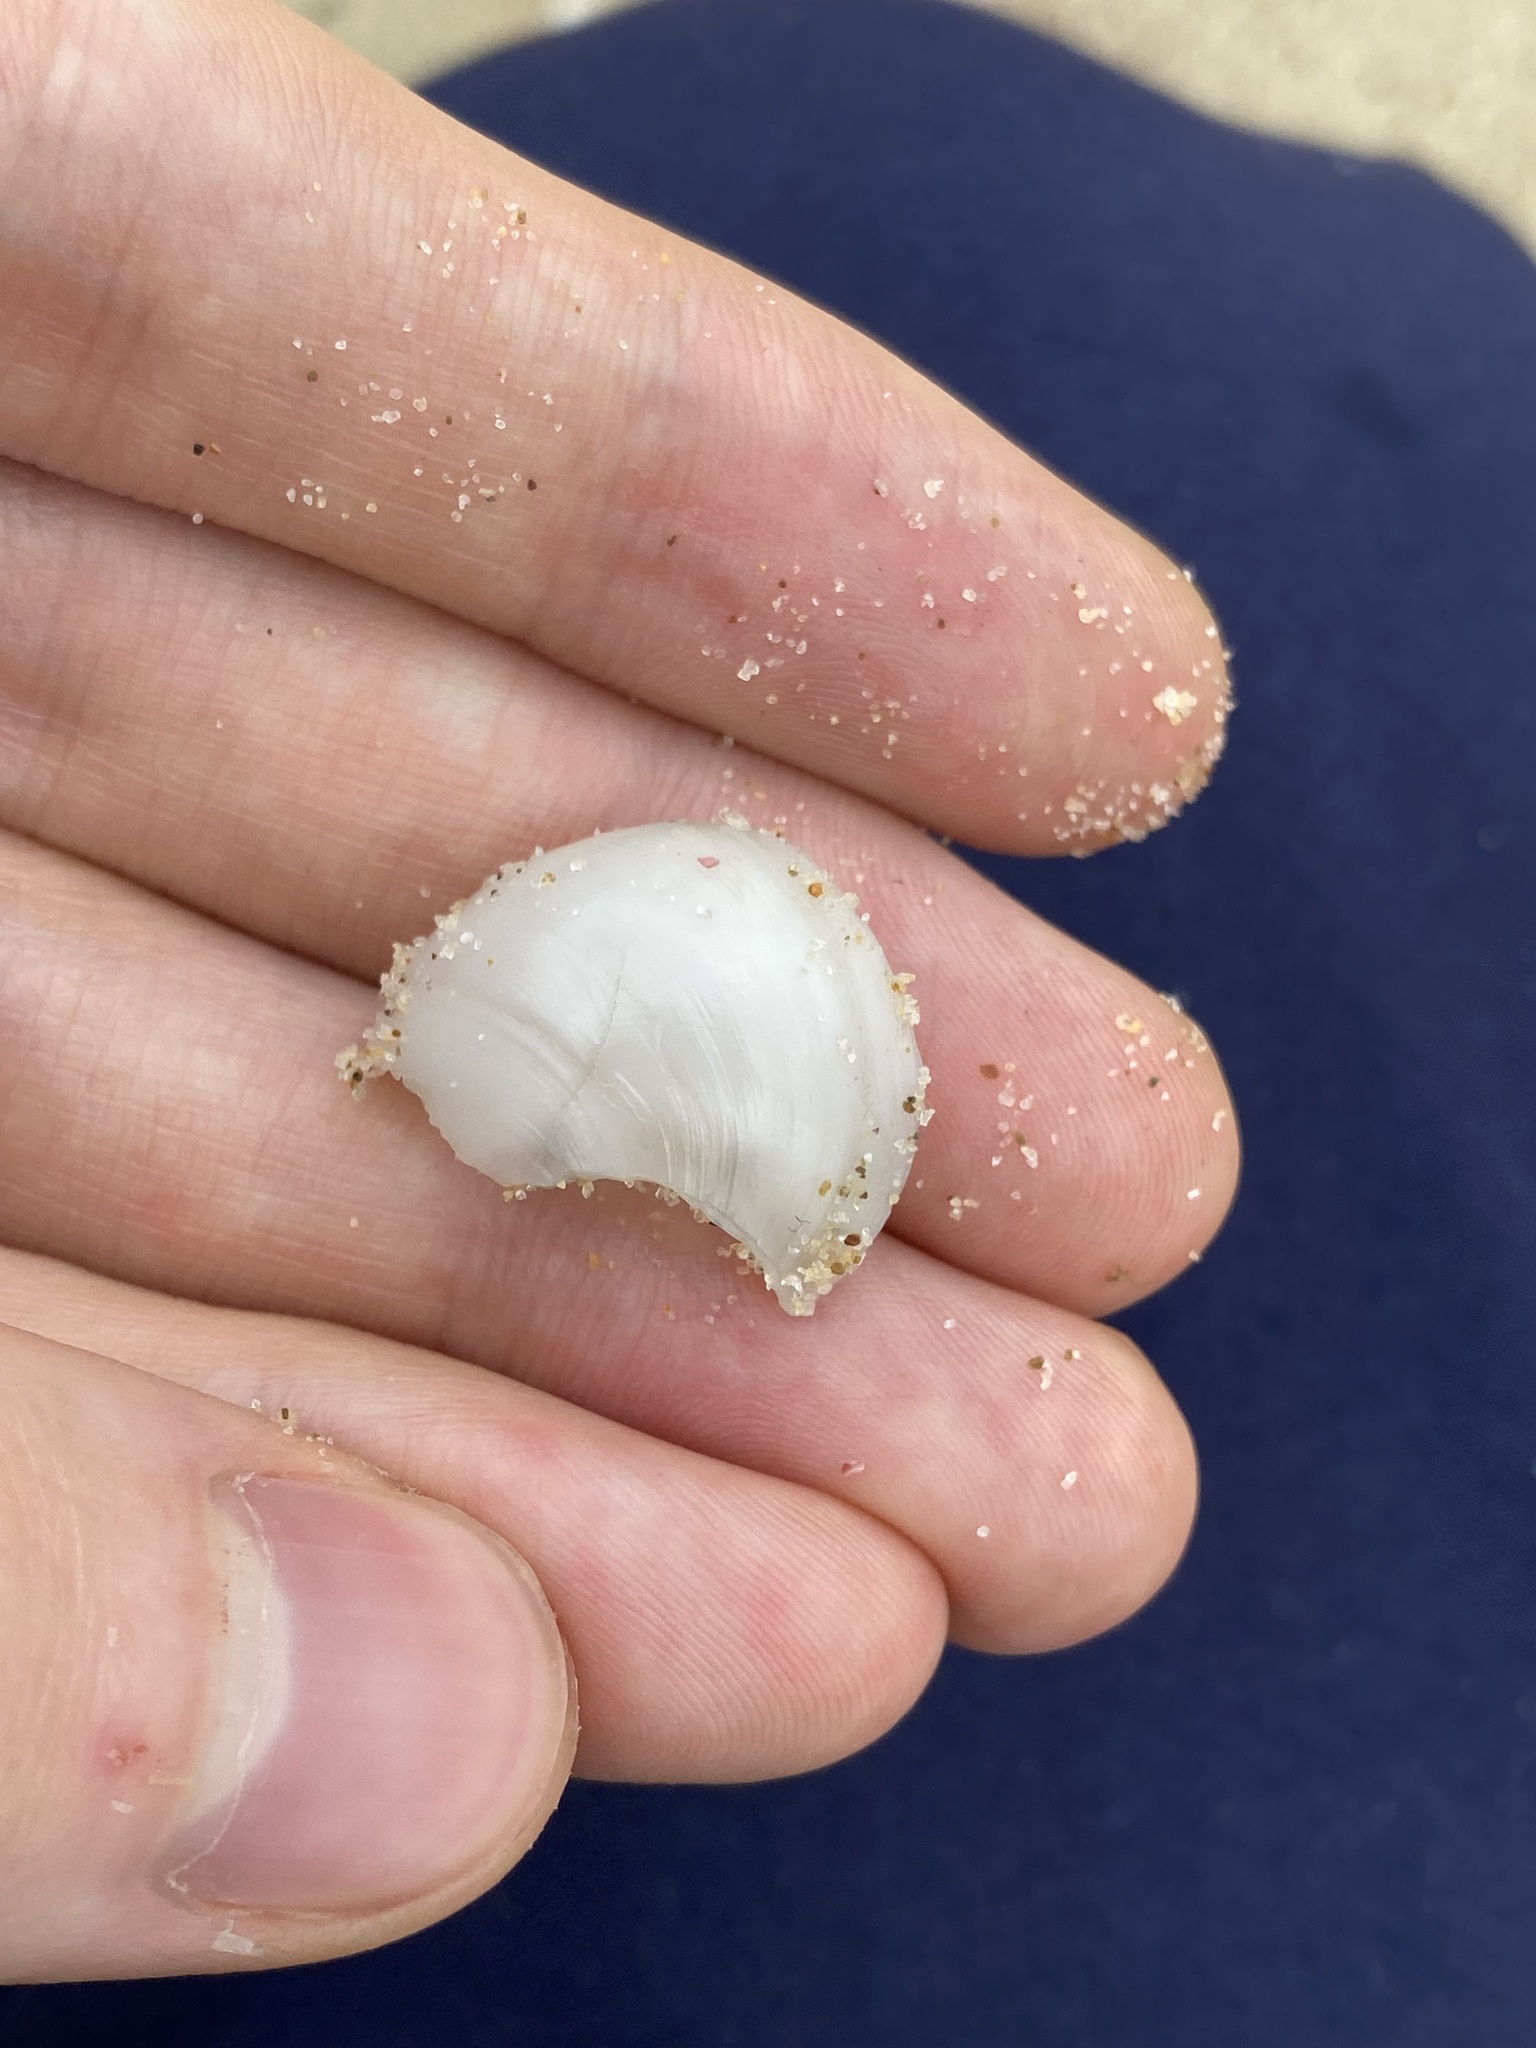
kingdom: Animalia
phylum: Mollusca
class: Gastropoda
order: Littorinimorpha
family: Naticidae
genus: Conuber
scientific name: Conuber incei
